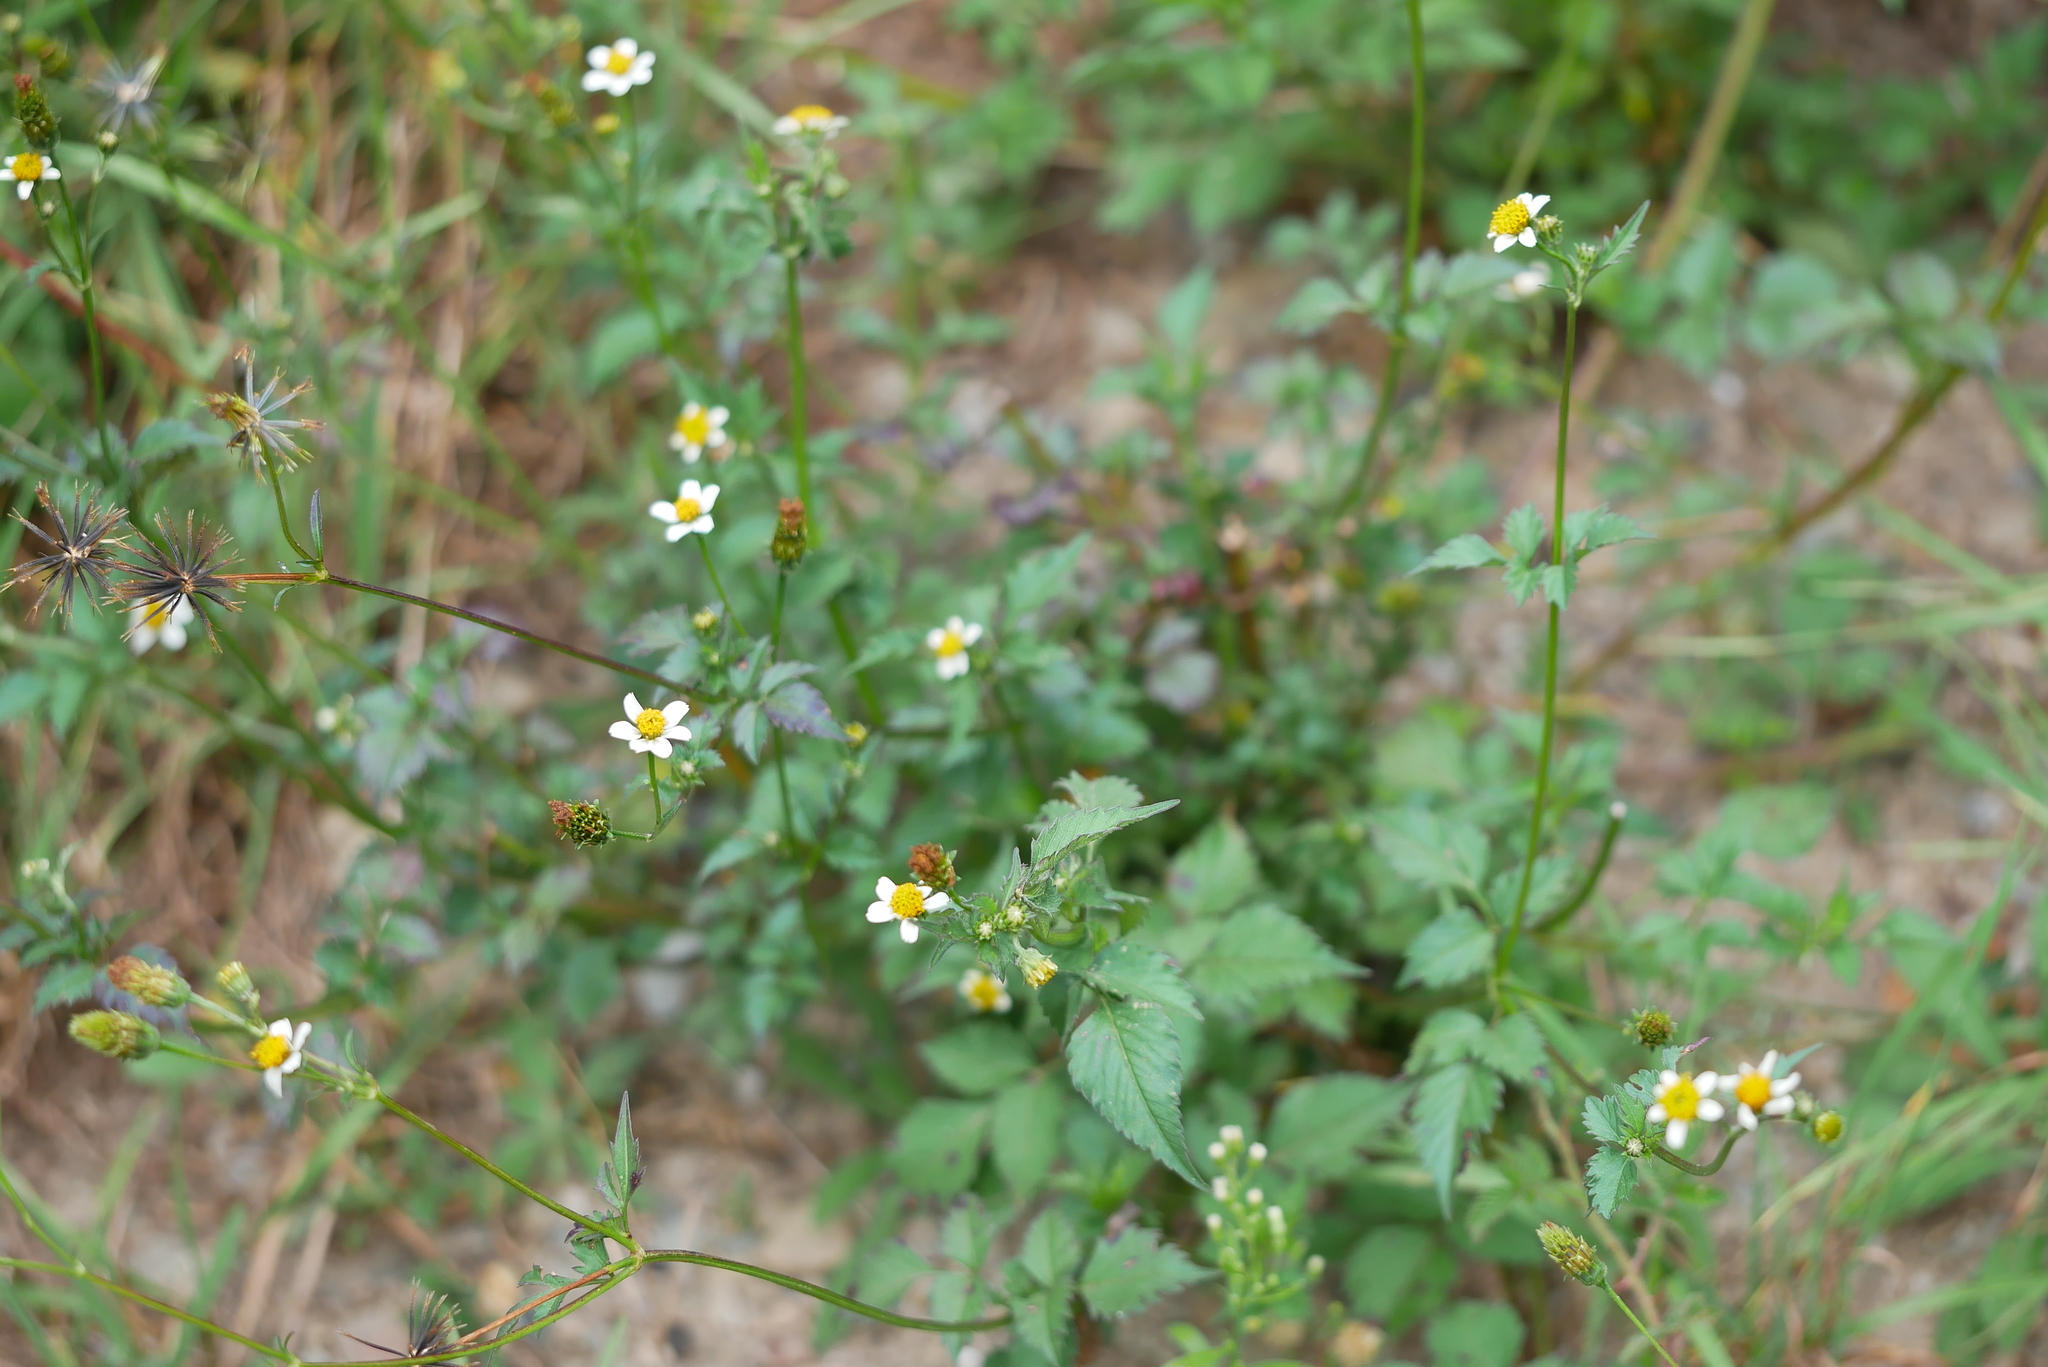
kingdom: Plantae
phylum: Tracheophyta
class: Magnoliopsida
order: Asterales
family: Asteraceae
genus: Bidens
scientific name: Bidens pilosa
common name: Black-jack
